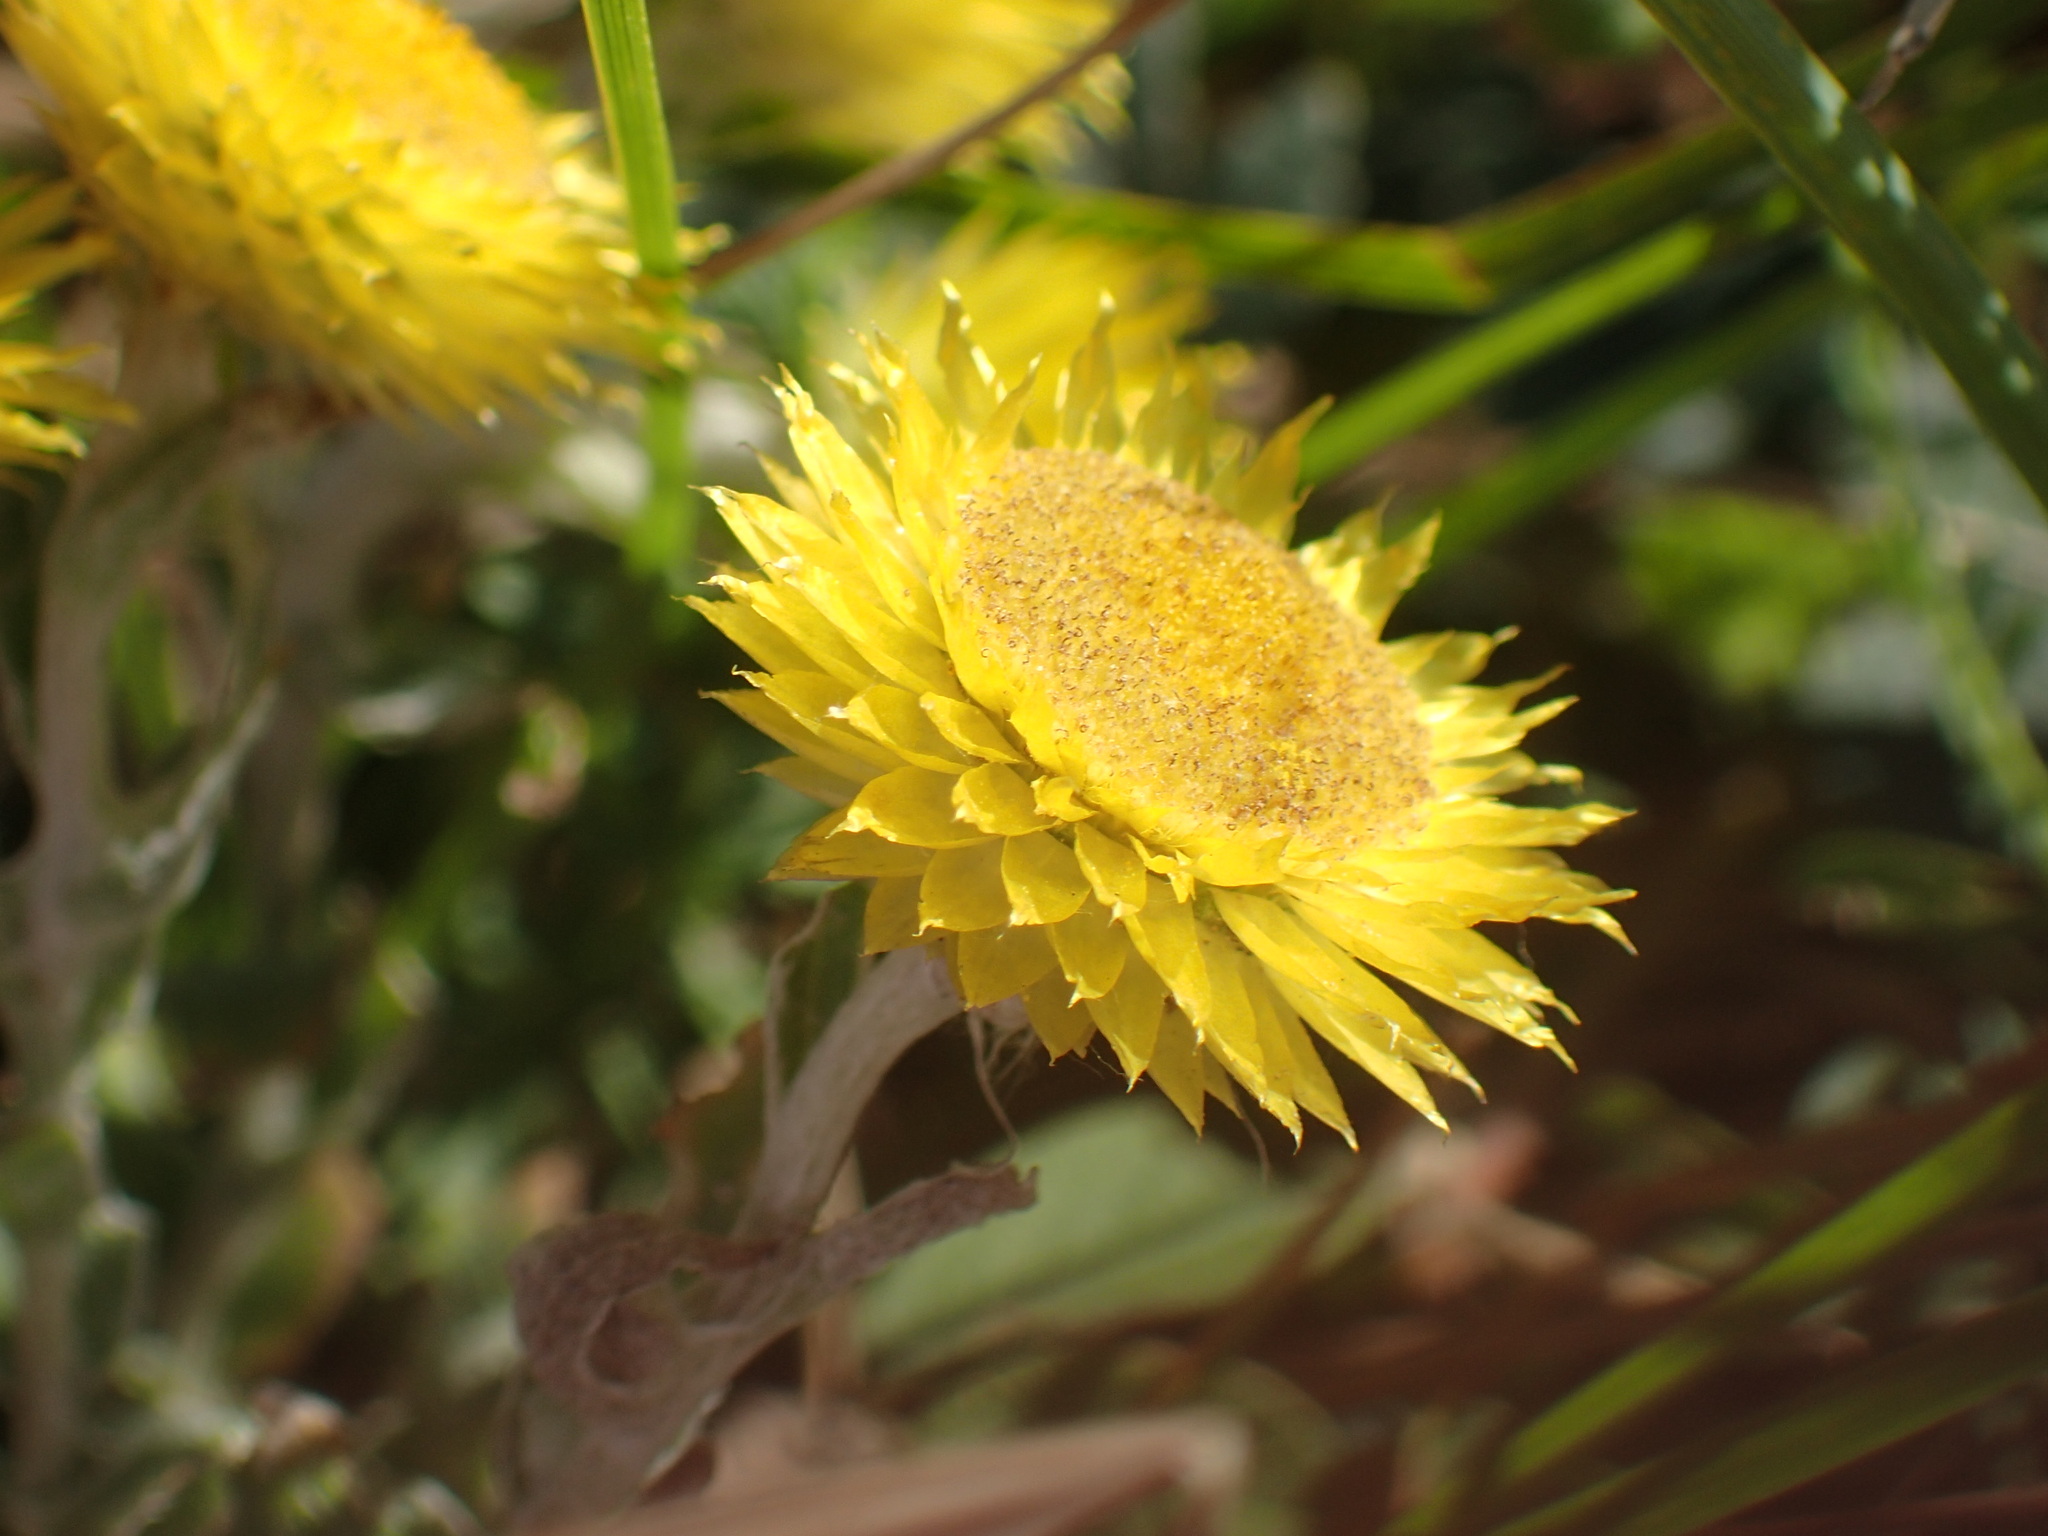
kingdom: Plantae
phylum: Tracheophyta
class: Magnoliopsida
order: Asterales
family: Asteraceae
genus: Helichrysum
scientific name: Helichrysum aureum
